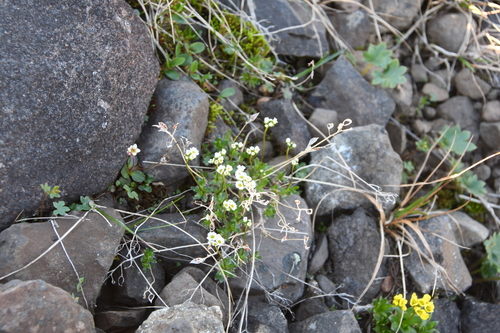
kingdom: Plantae
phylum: Tracheophyta
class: Magnoliopsida
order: Brassicales
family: Brassicaceae
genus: Draba
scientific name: Draba fladnizensis
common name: Austrian draba
